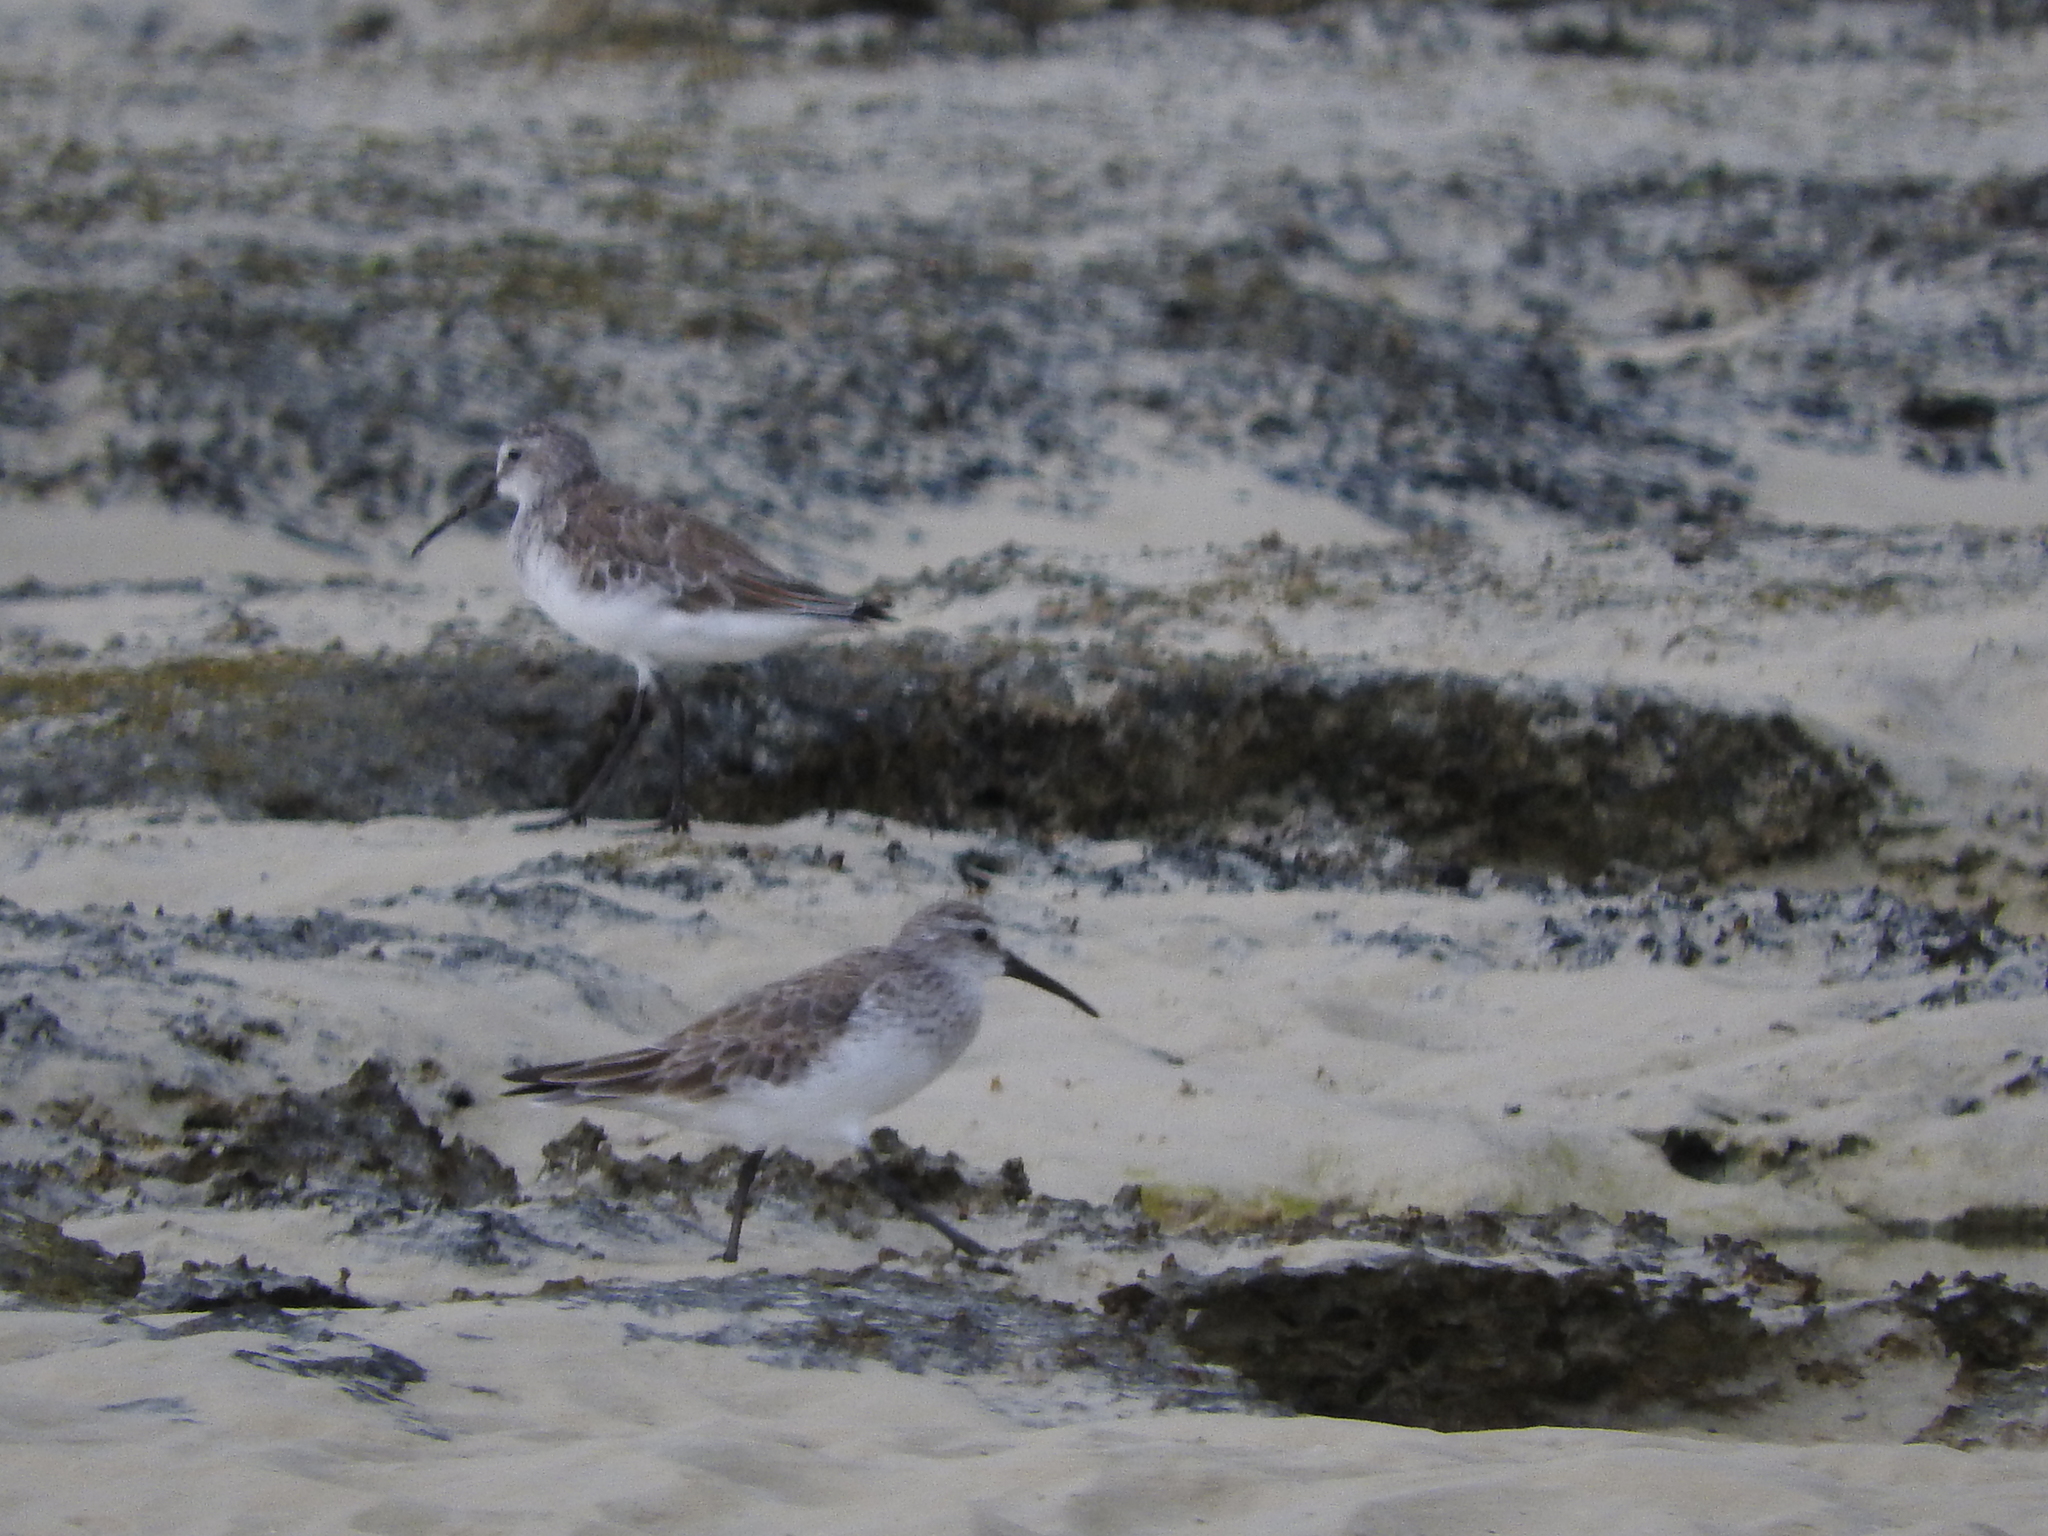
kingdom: Animalia
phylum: Chordata
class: Aves
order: Charadriiformes
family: Scolopacidae
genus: Calidris
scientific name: Calidris ferruginea
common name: Curlew sandpiper
